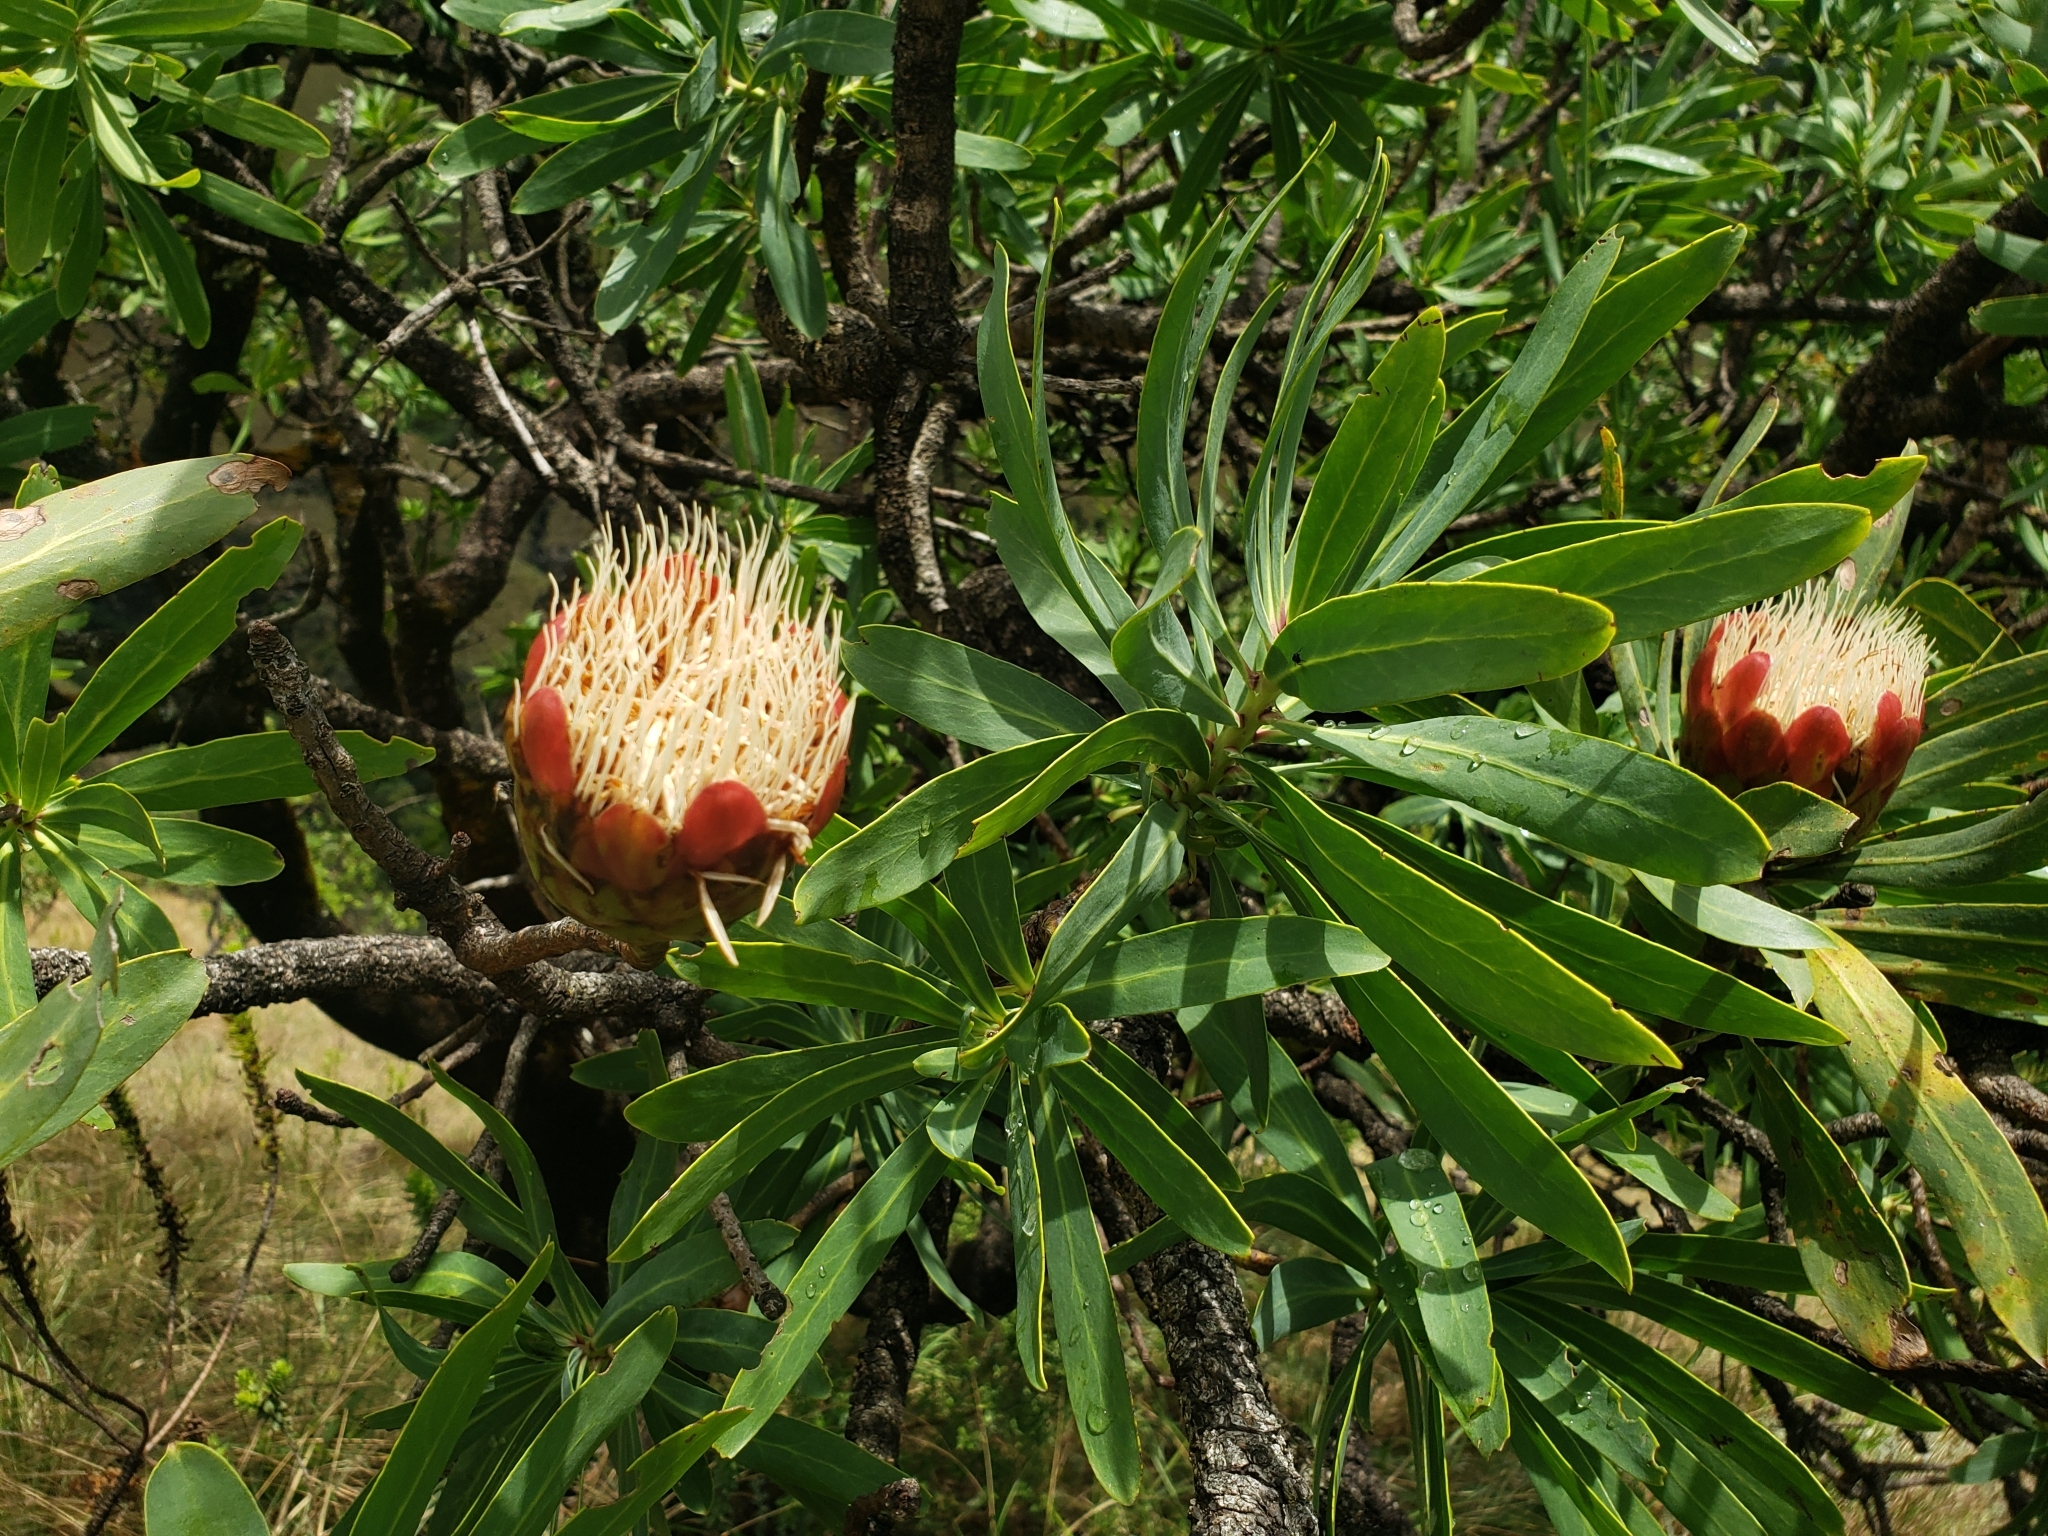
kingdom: Plantae
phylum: Tracheophyta
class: Magnoliopsida
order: Proteales
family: Proteaceae
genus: Protea
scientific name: Protea caffra
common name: Common sugarbush
